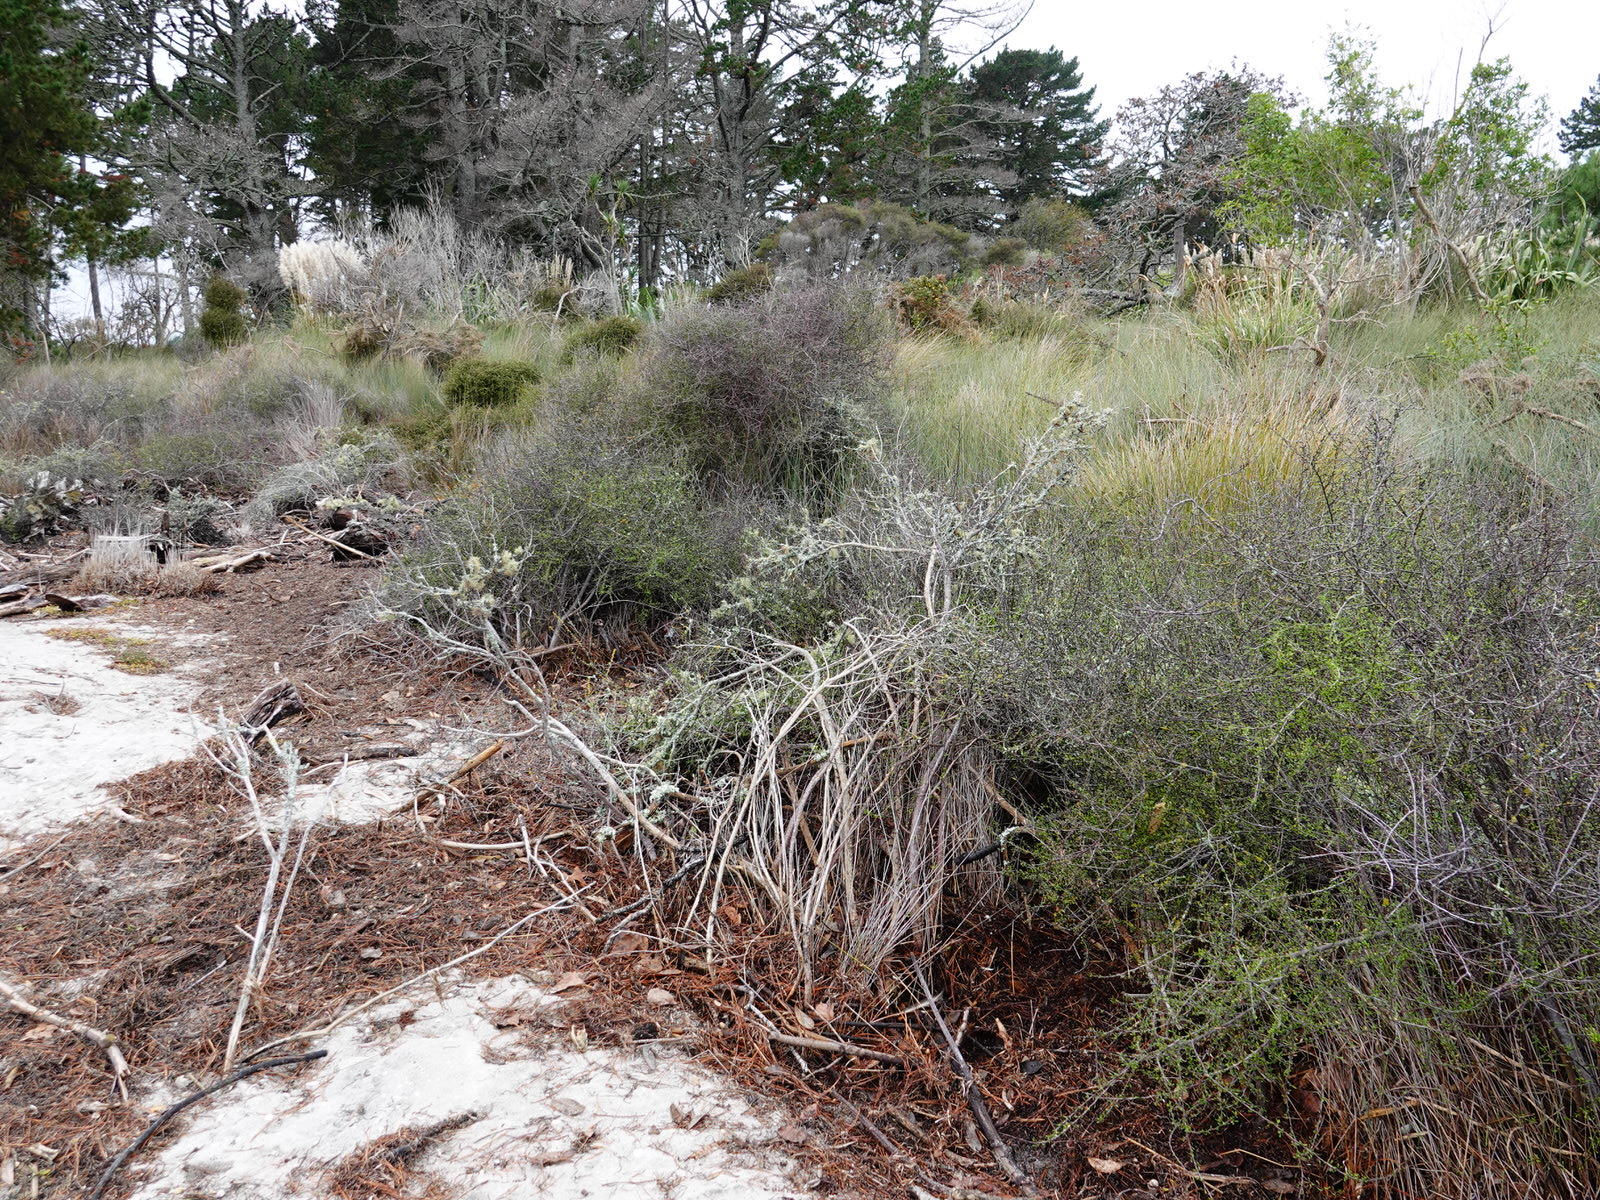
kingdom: Plantae
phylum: Tracheophyta
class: Magnoliopsida
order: Malvales
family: Malvaceae
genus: Plagianthus
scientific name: Plagianthus divaricatus
